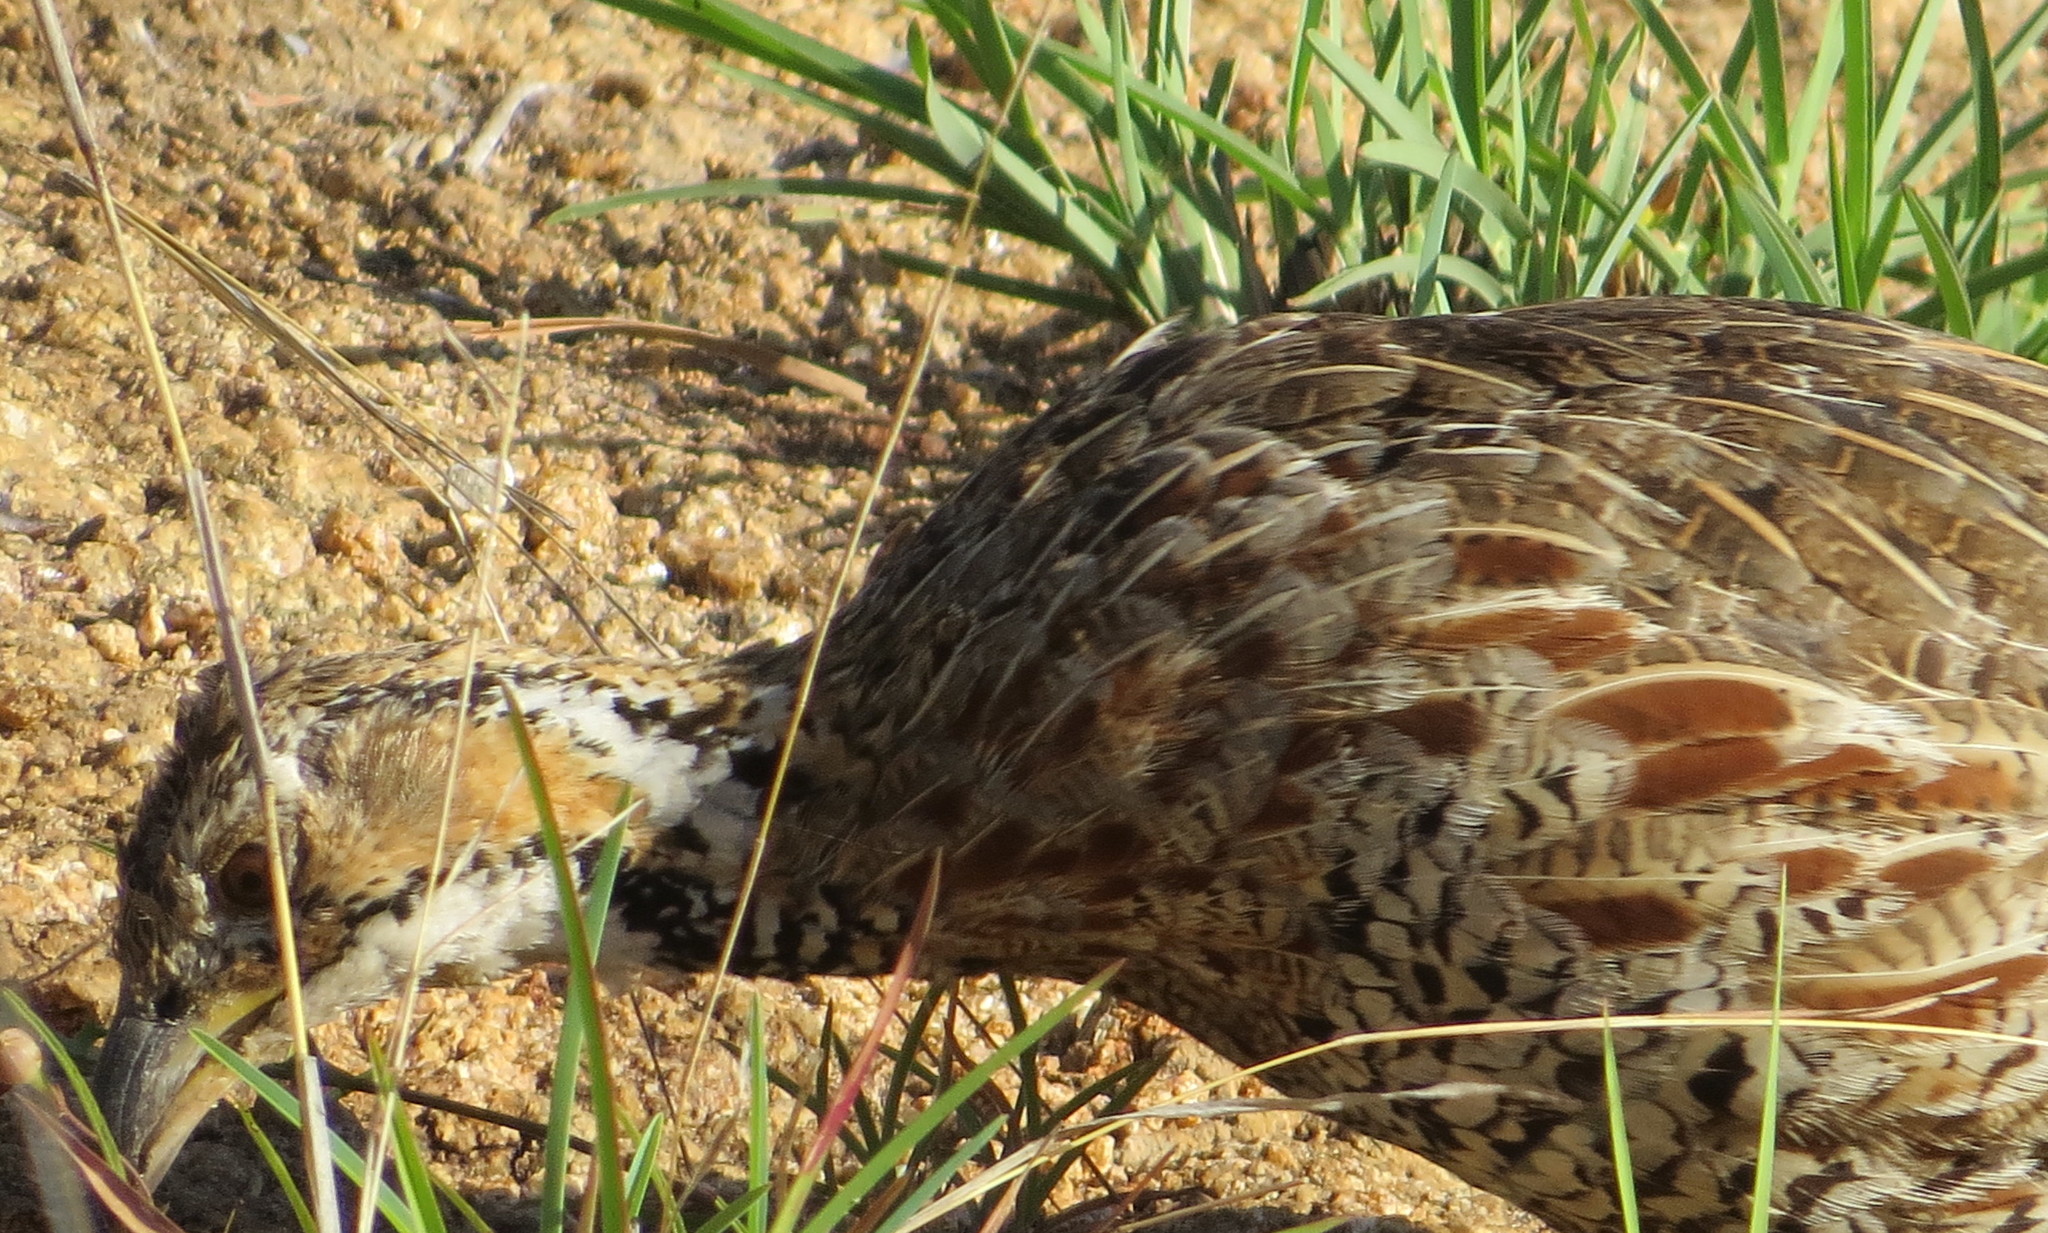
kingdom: Animalia
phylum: Chordata
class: Aves
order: Galliformes
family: Phasianidae
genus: Scleroptila
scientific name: Scleroptila shelleyi
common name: Shelley's francolin
